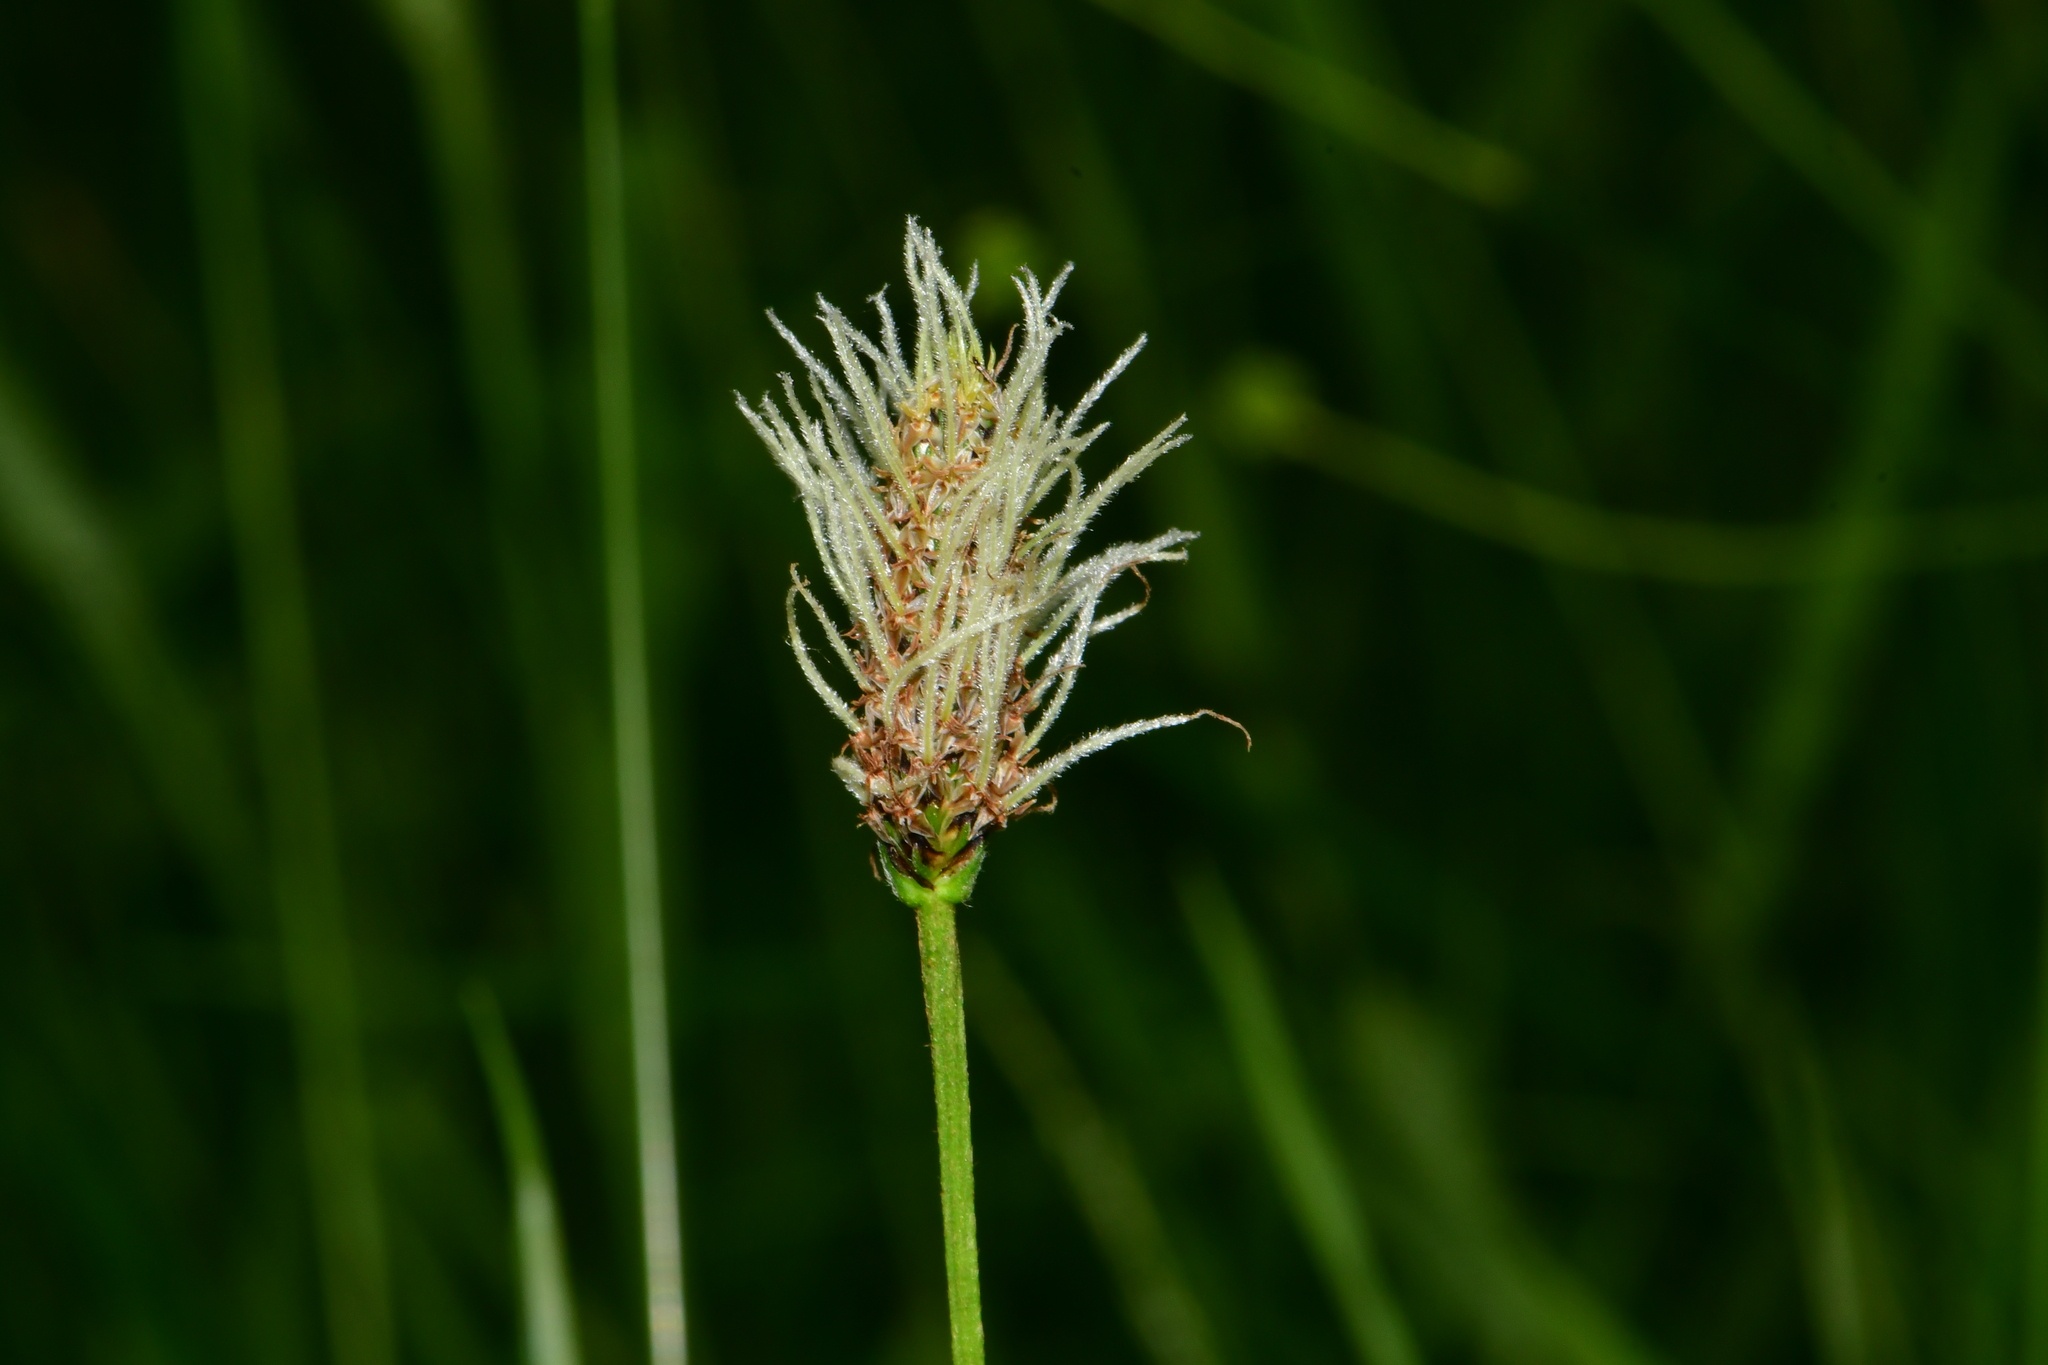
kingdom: Plantae
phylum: Tracheophyta
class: Magnoliopsida
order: Lamiales
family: Plantaginaceae
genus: Plantago
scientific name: Plantago lanceolata
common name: Ribwort plantain
